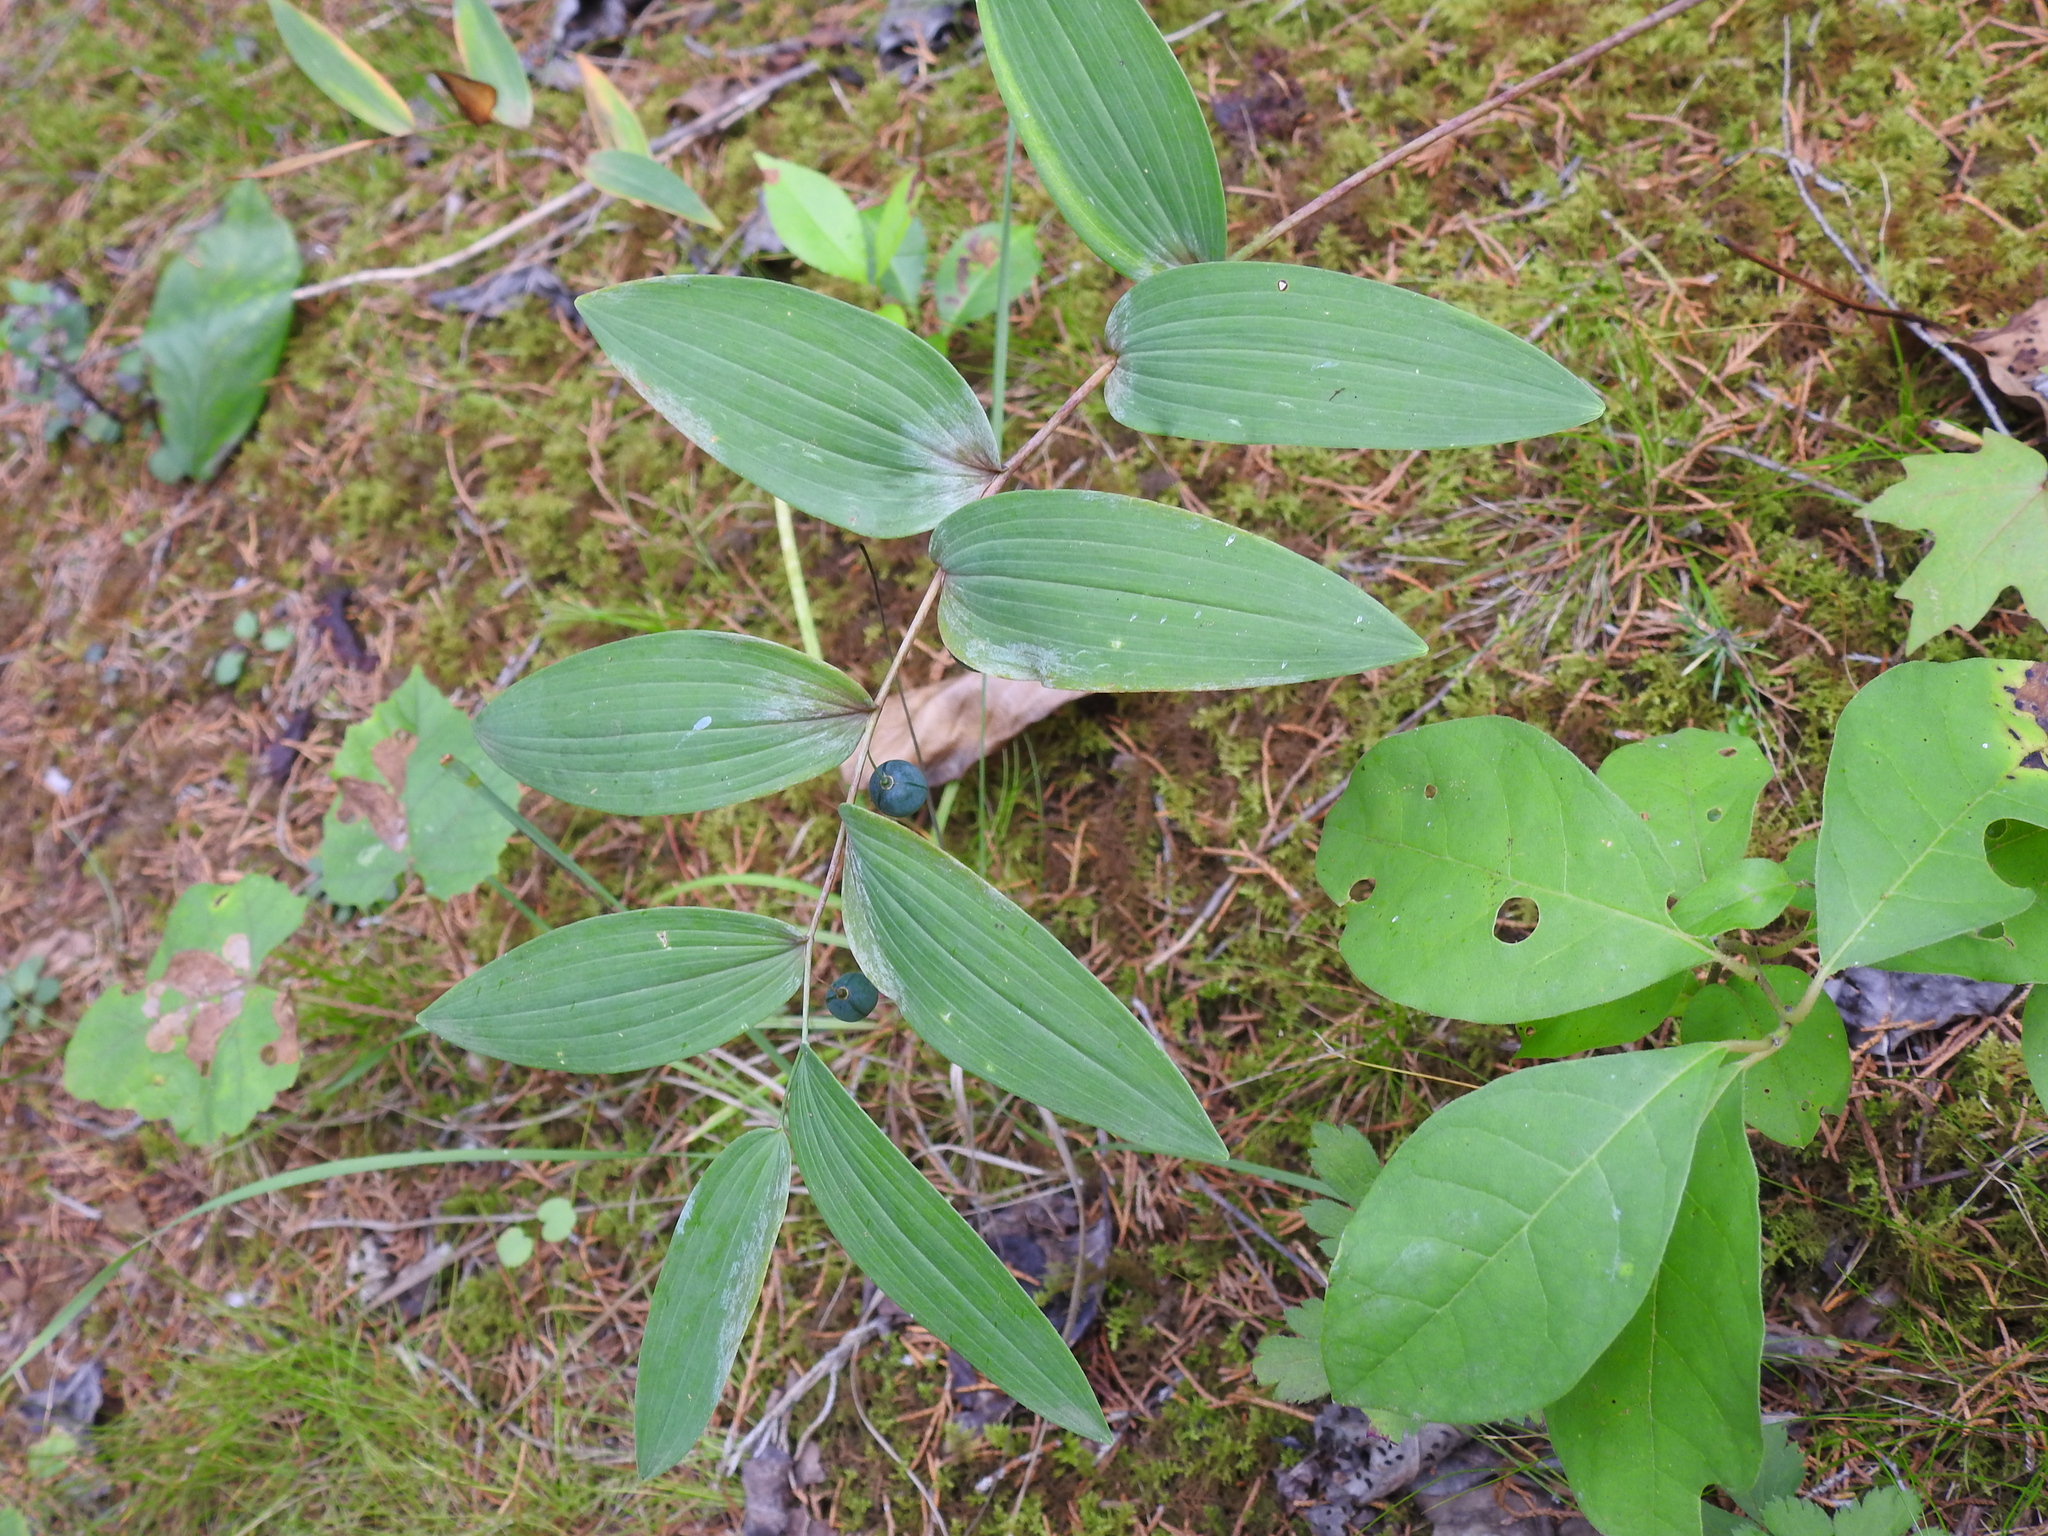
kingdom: Plantae
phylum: Tracheophyta
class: Liliopsida
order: Asparagales
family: Asparagaceae
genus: Polygonatum
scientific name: Polygonatum biflorum
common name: American solomon's-seal
